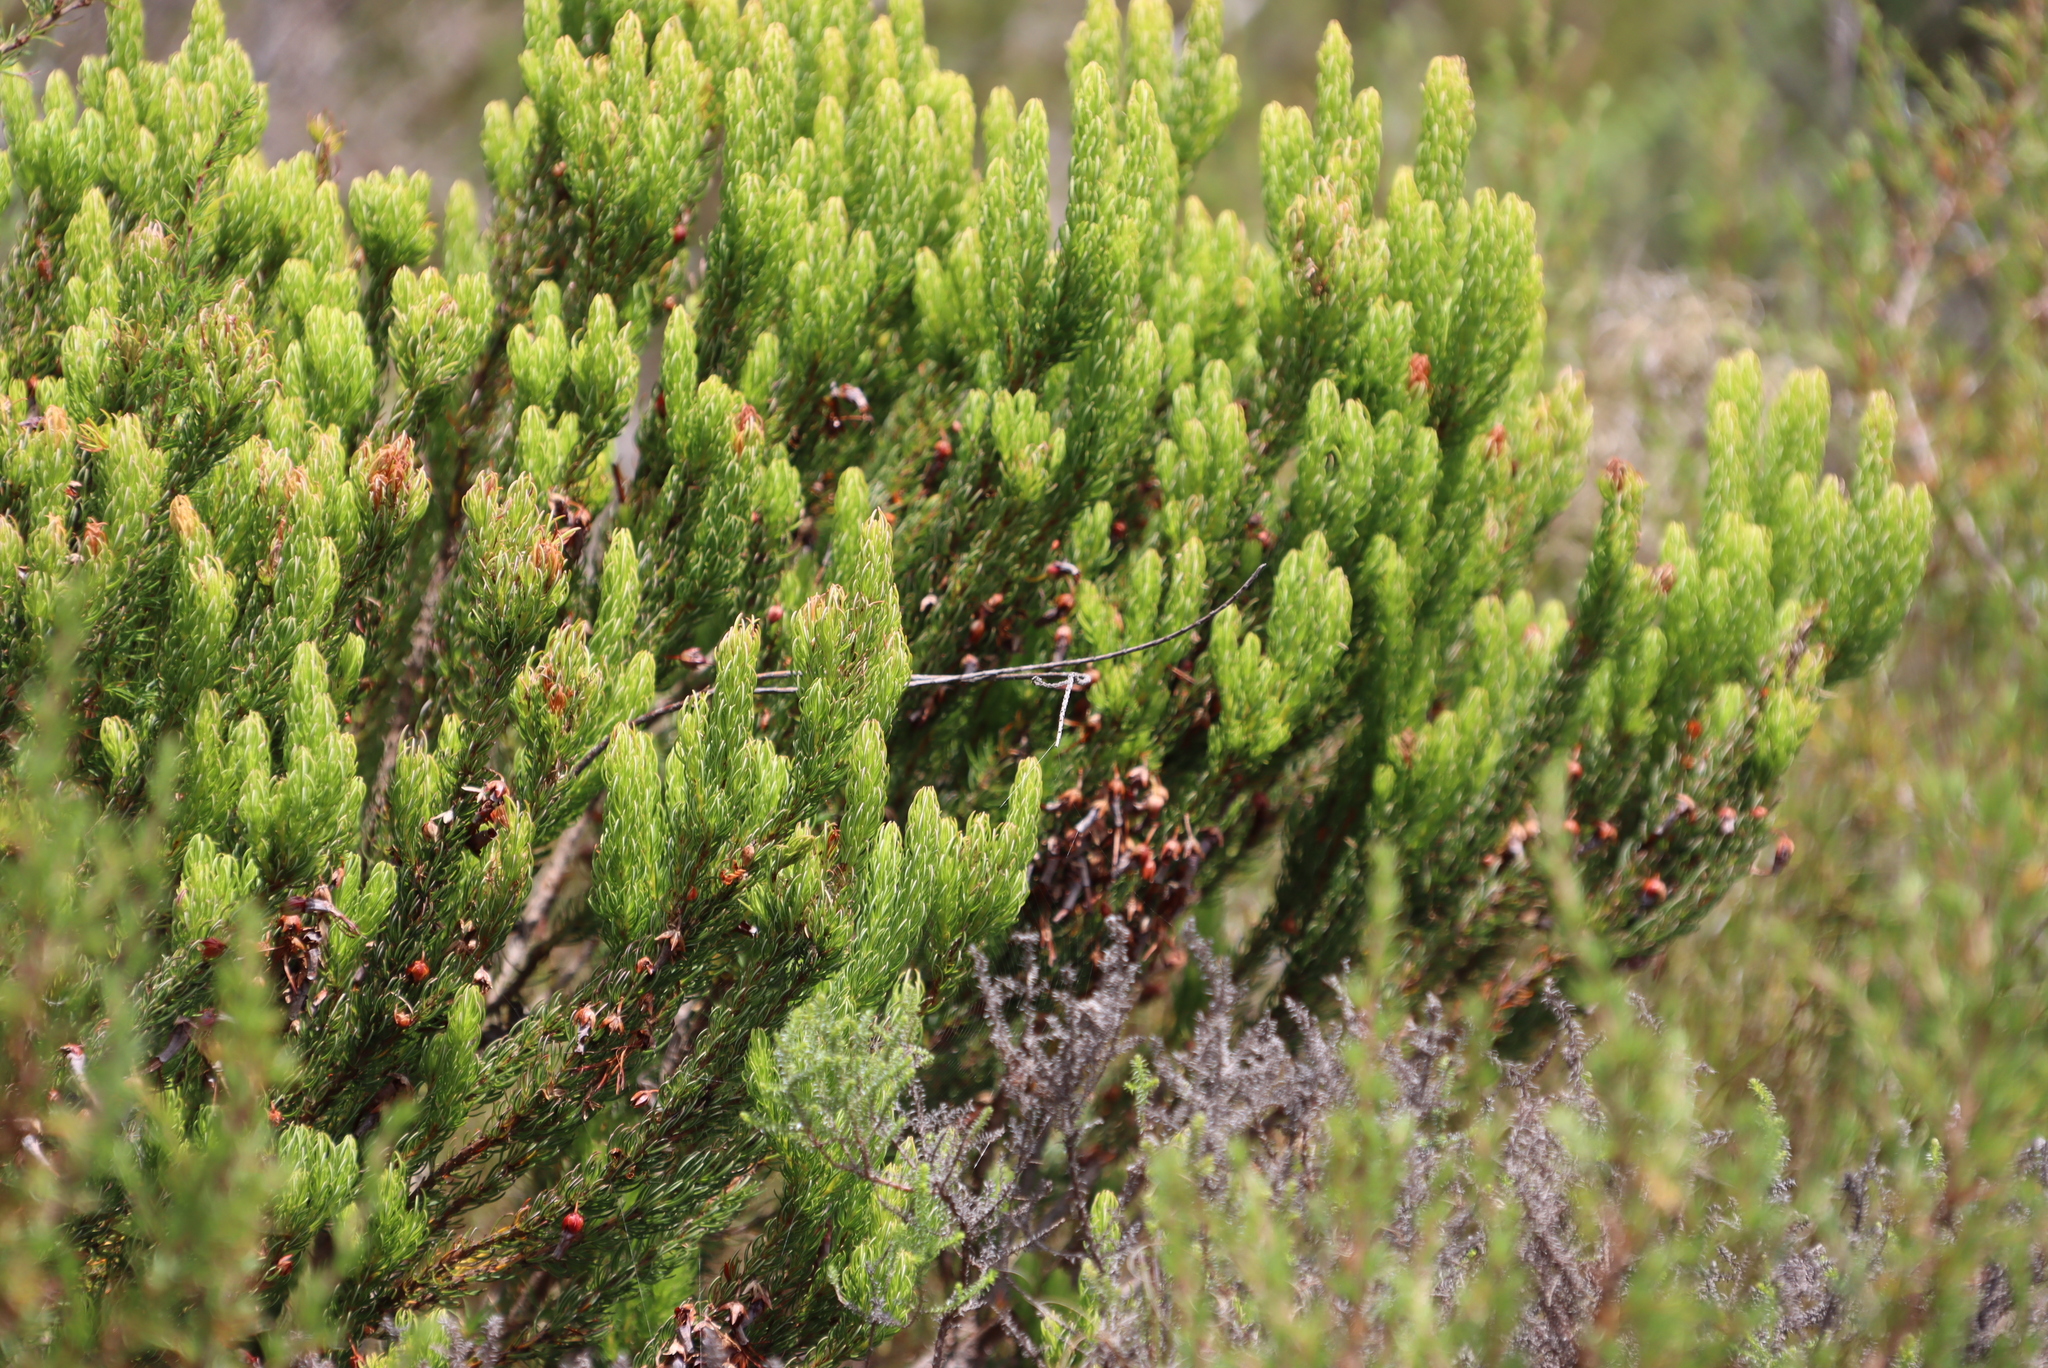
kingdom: Plantae
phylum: Tracheophyta
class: Magnoliopsida
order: Ericales
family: Ericaceae
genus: Erica
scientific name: Erica plukenetii
